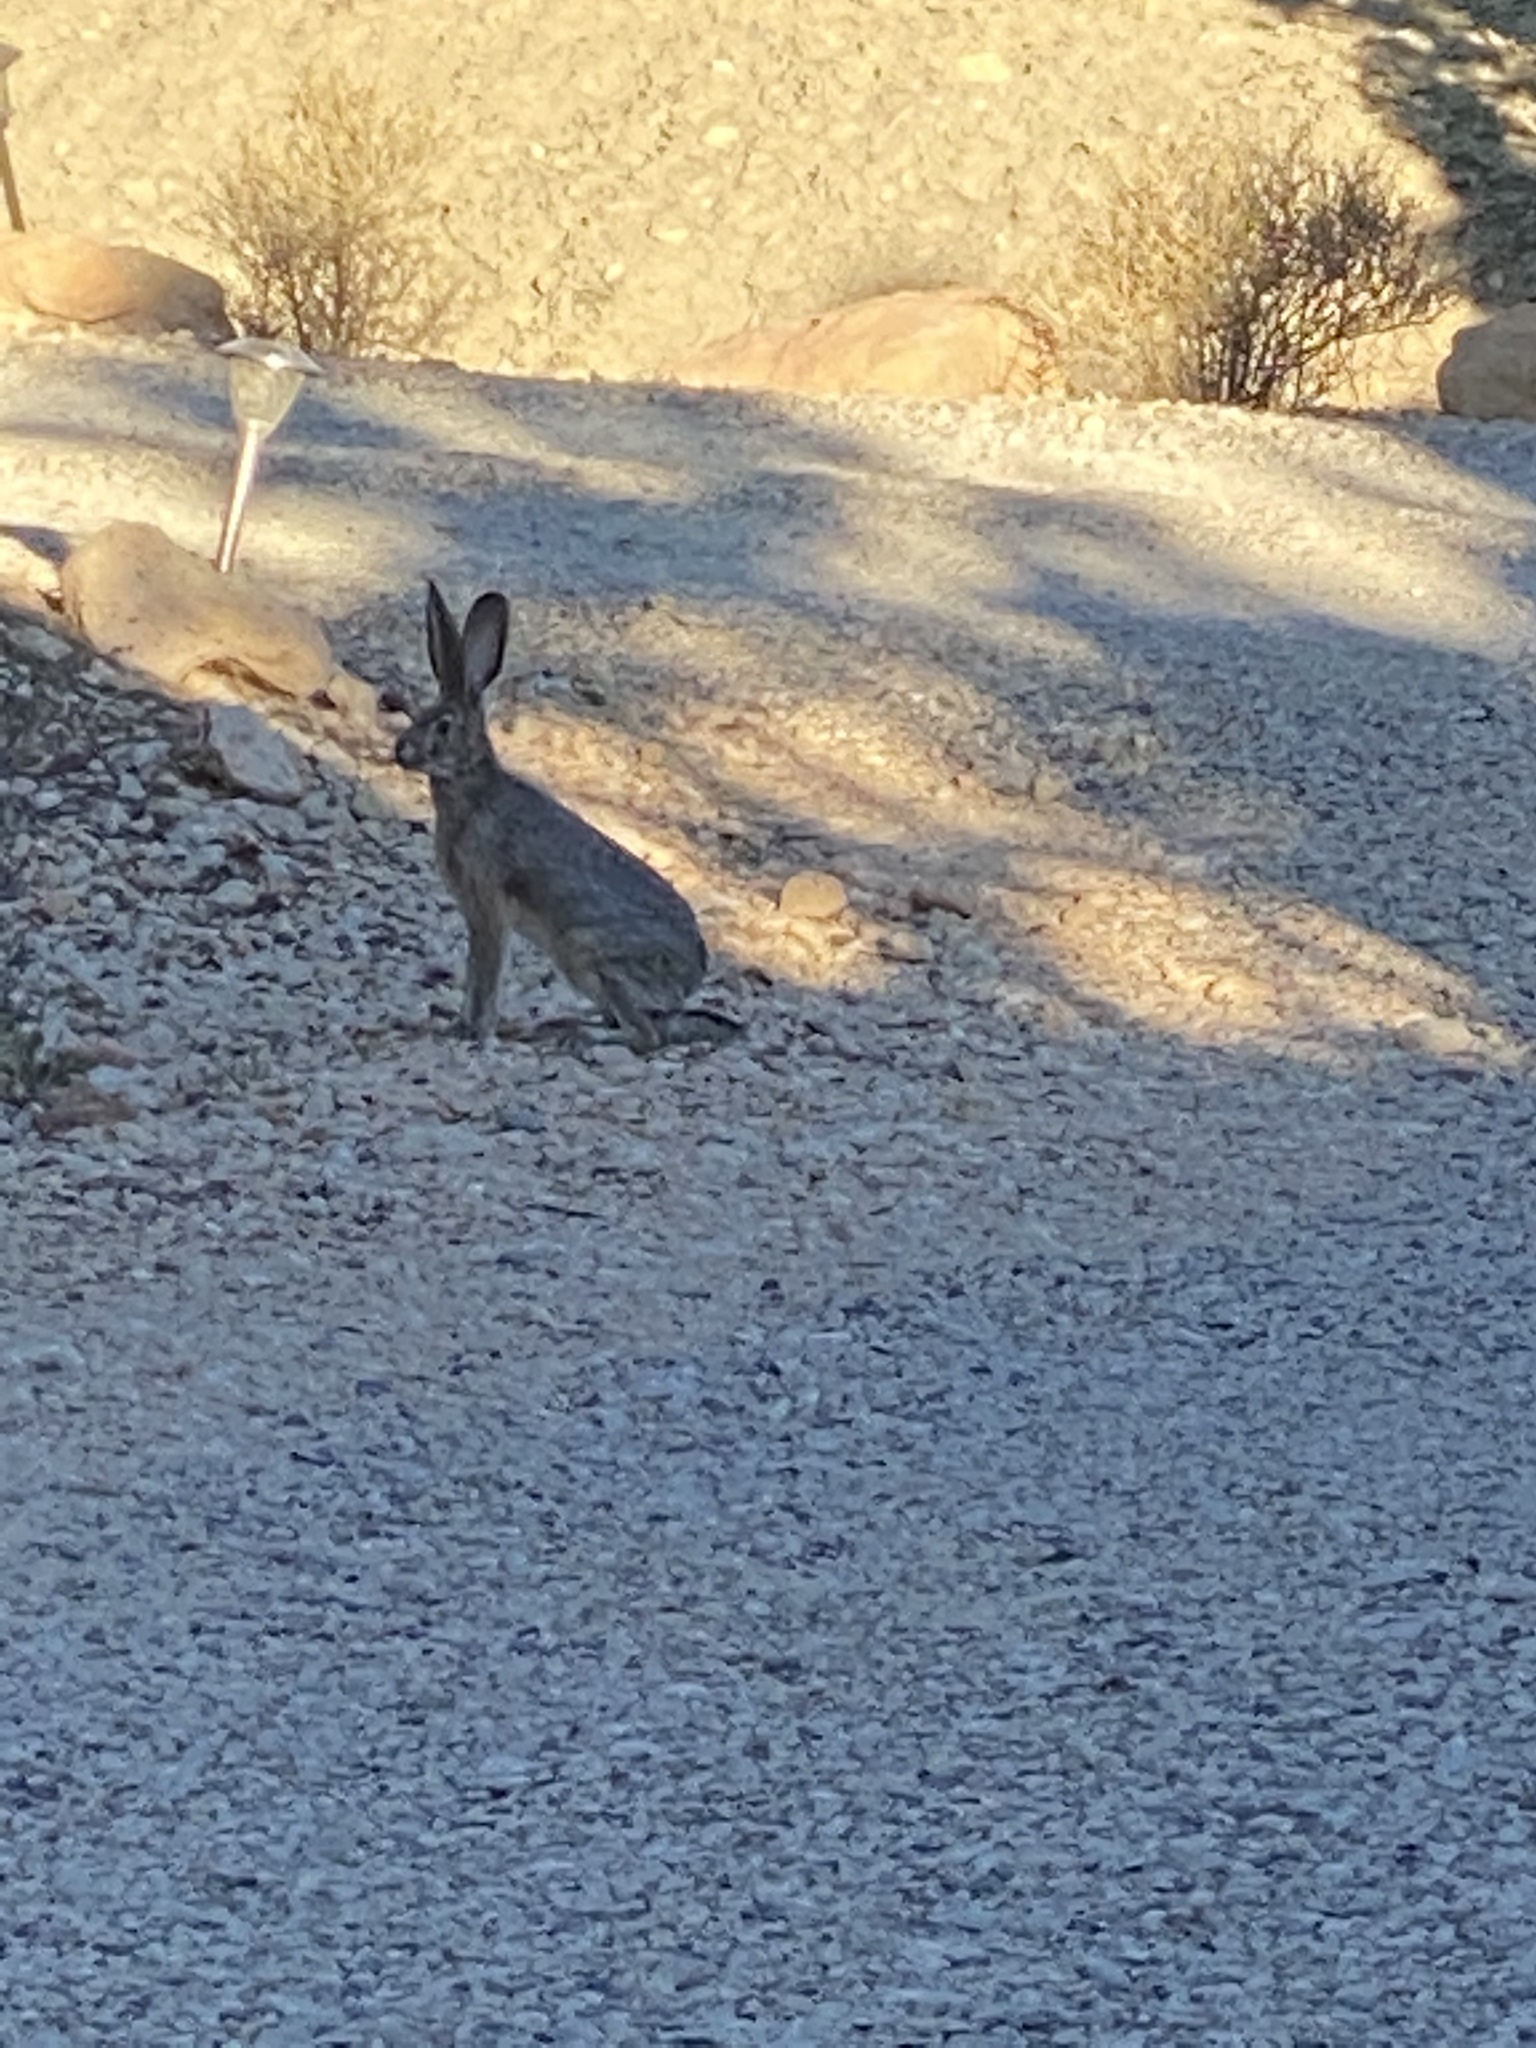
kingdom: Animalia
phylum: Chordata
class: Mammalia
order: Lagomorpha
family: Leporidae
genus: Lepus
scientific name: Lepus californicus
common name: Black-tailed jackrabbit
